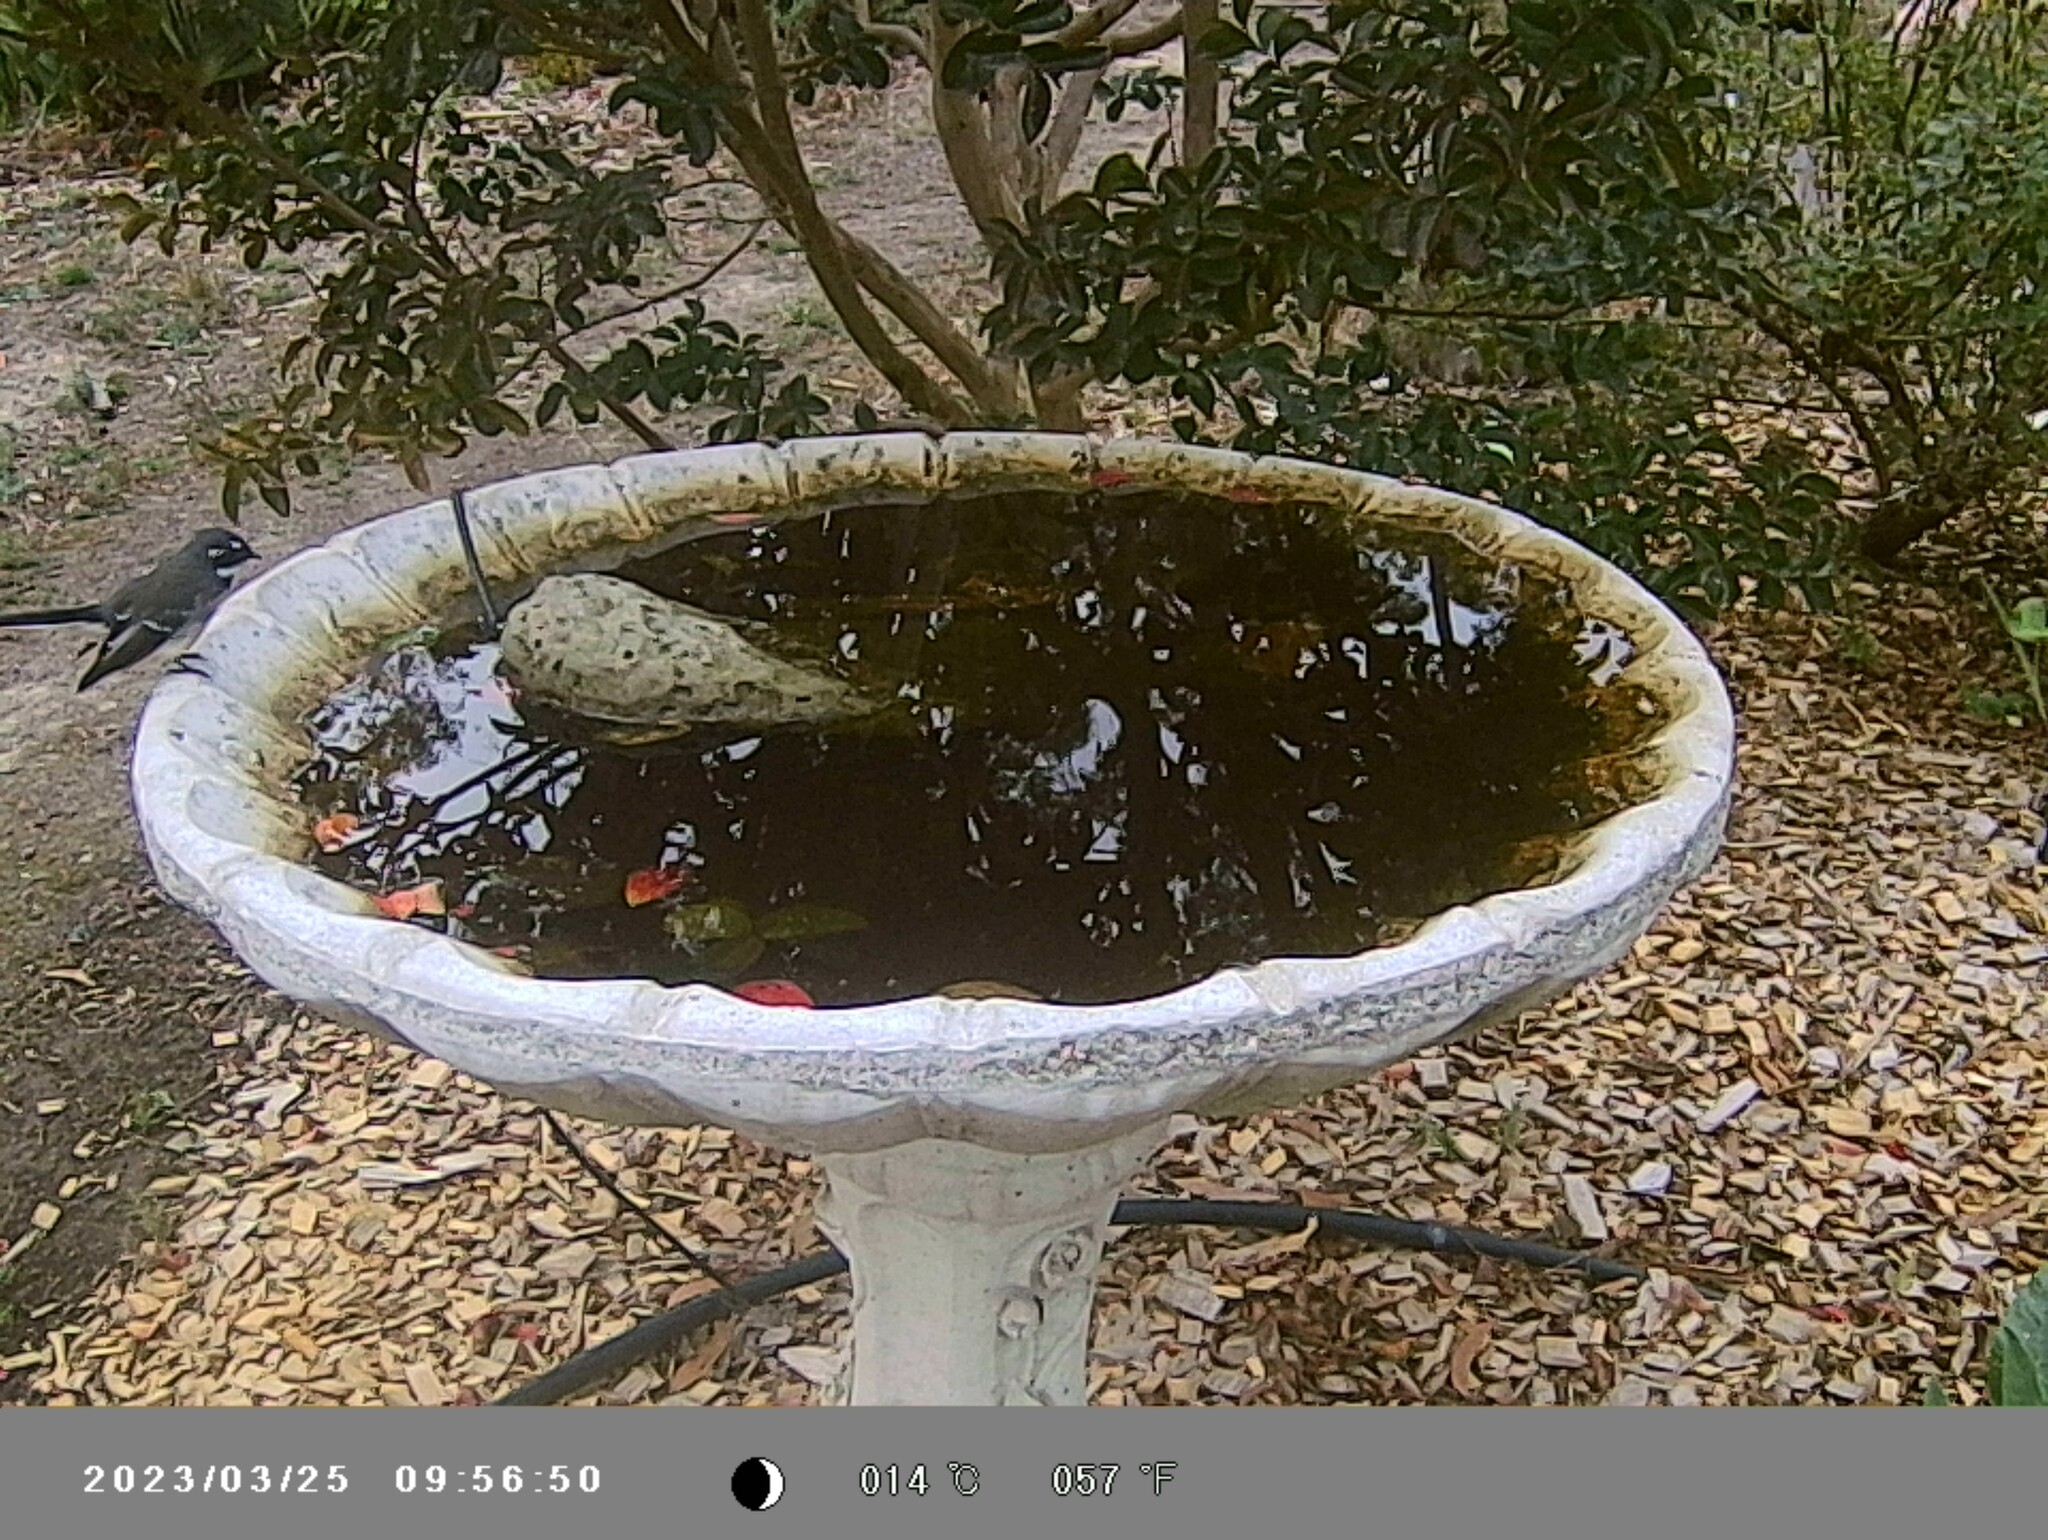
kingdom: Animalia
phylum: Chordata
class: Aves
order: Passeriformes
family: Rhipiduridae
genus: Rhipidura
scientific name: Rhipidura albiscapa
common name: Grey fantail
